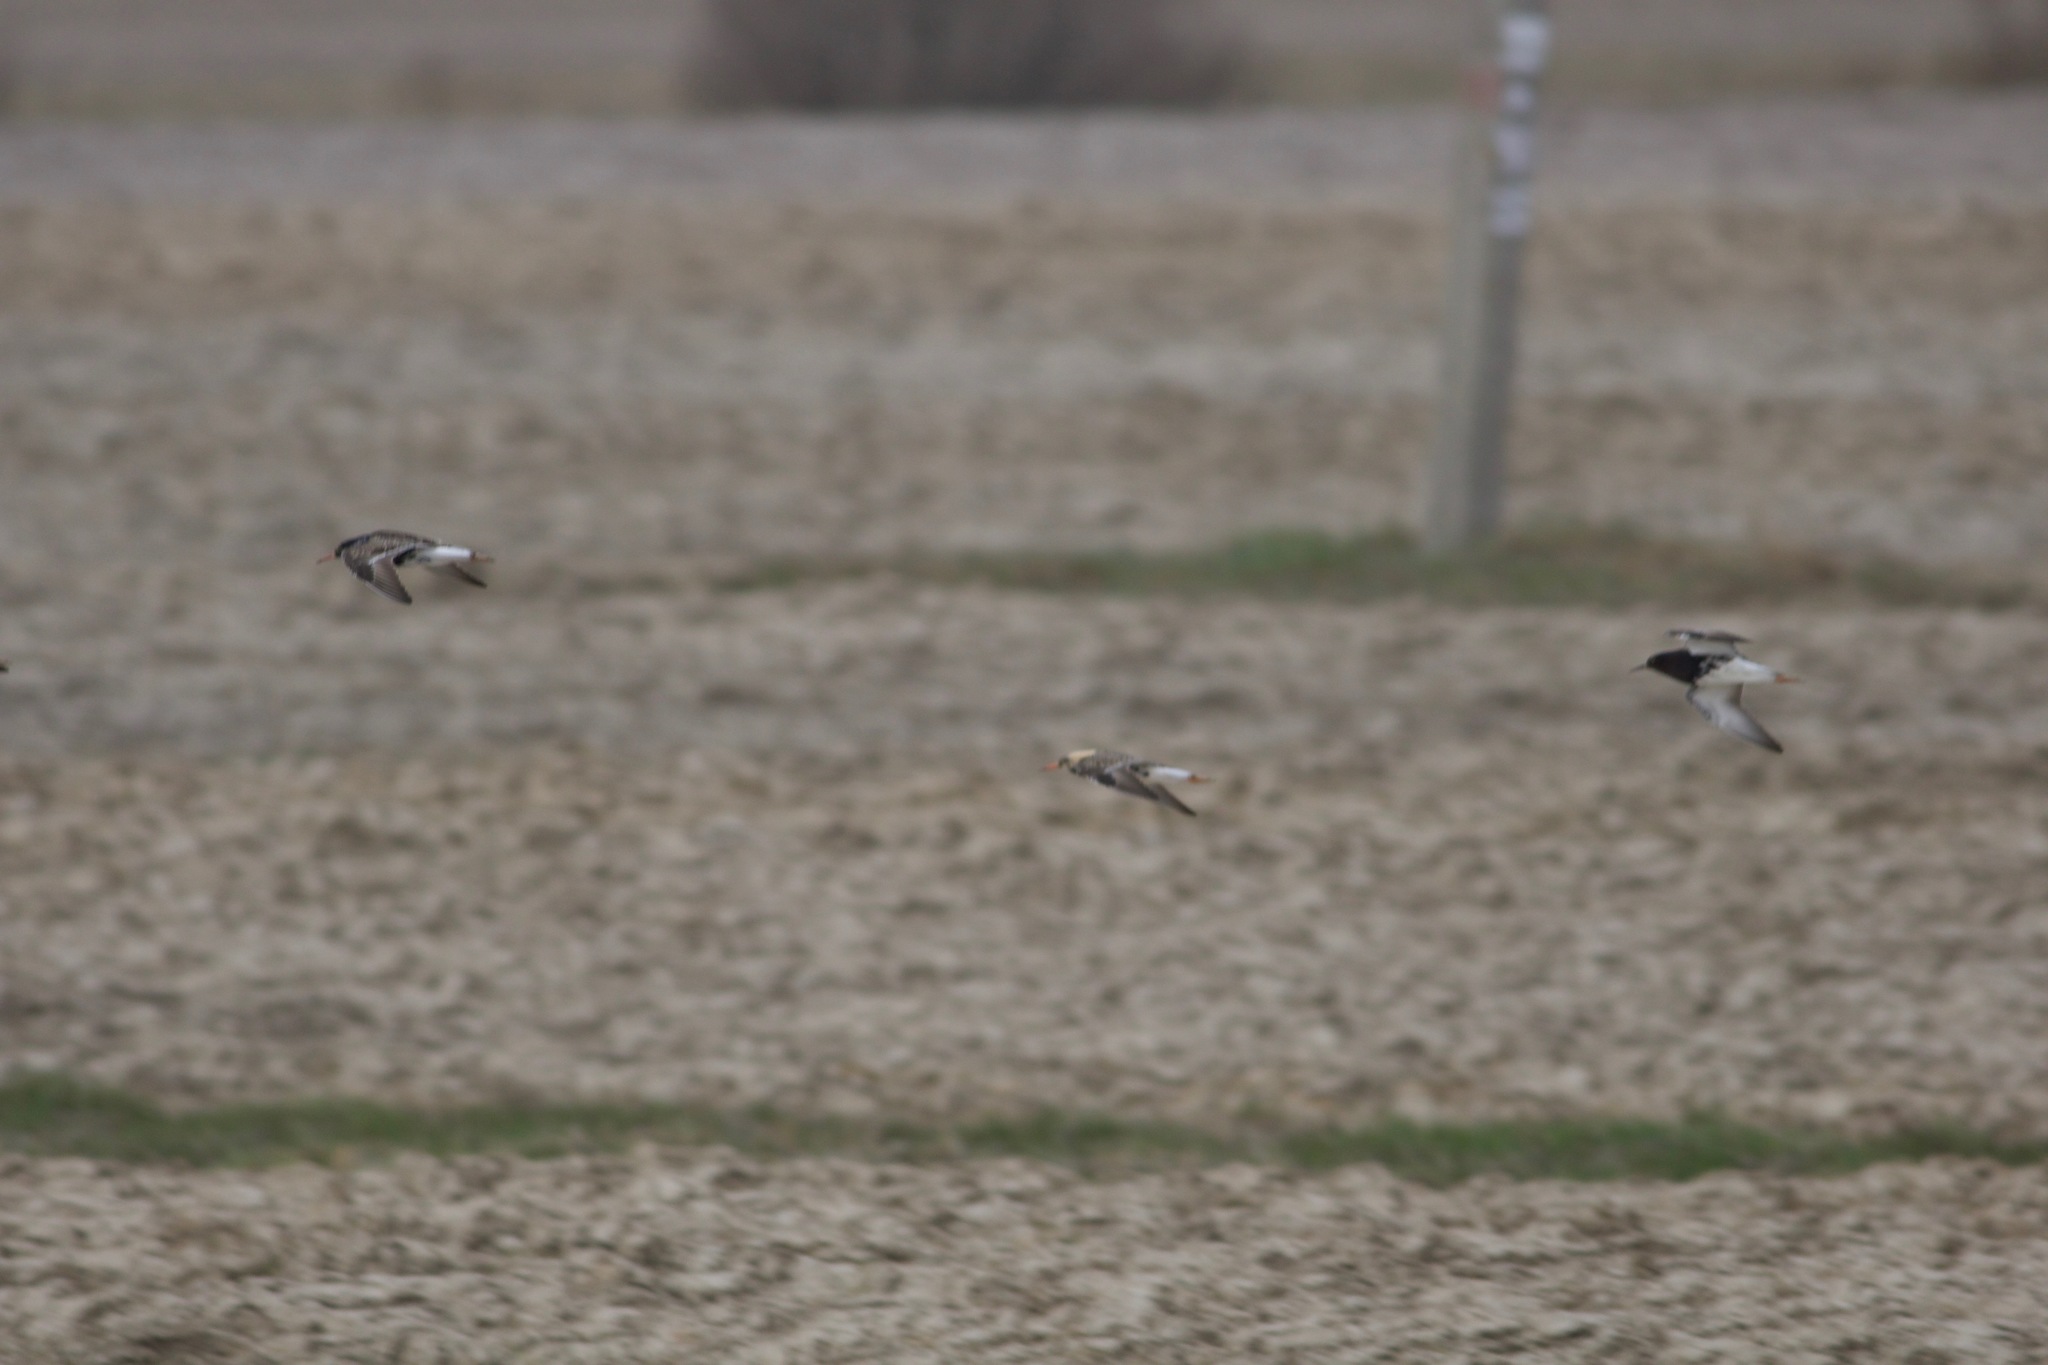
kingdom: Animalia
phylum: Chordata
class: Aves
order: Charadriiformes
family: Scolopacidae
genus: Calidris
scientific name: Calidris pugnax
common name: Ruff
